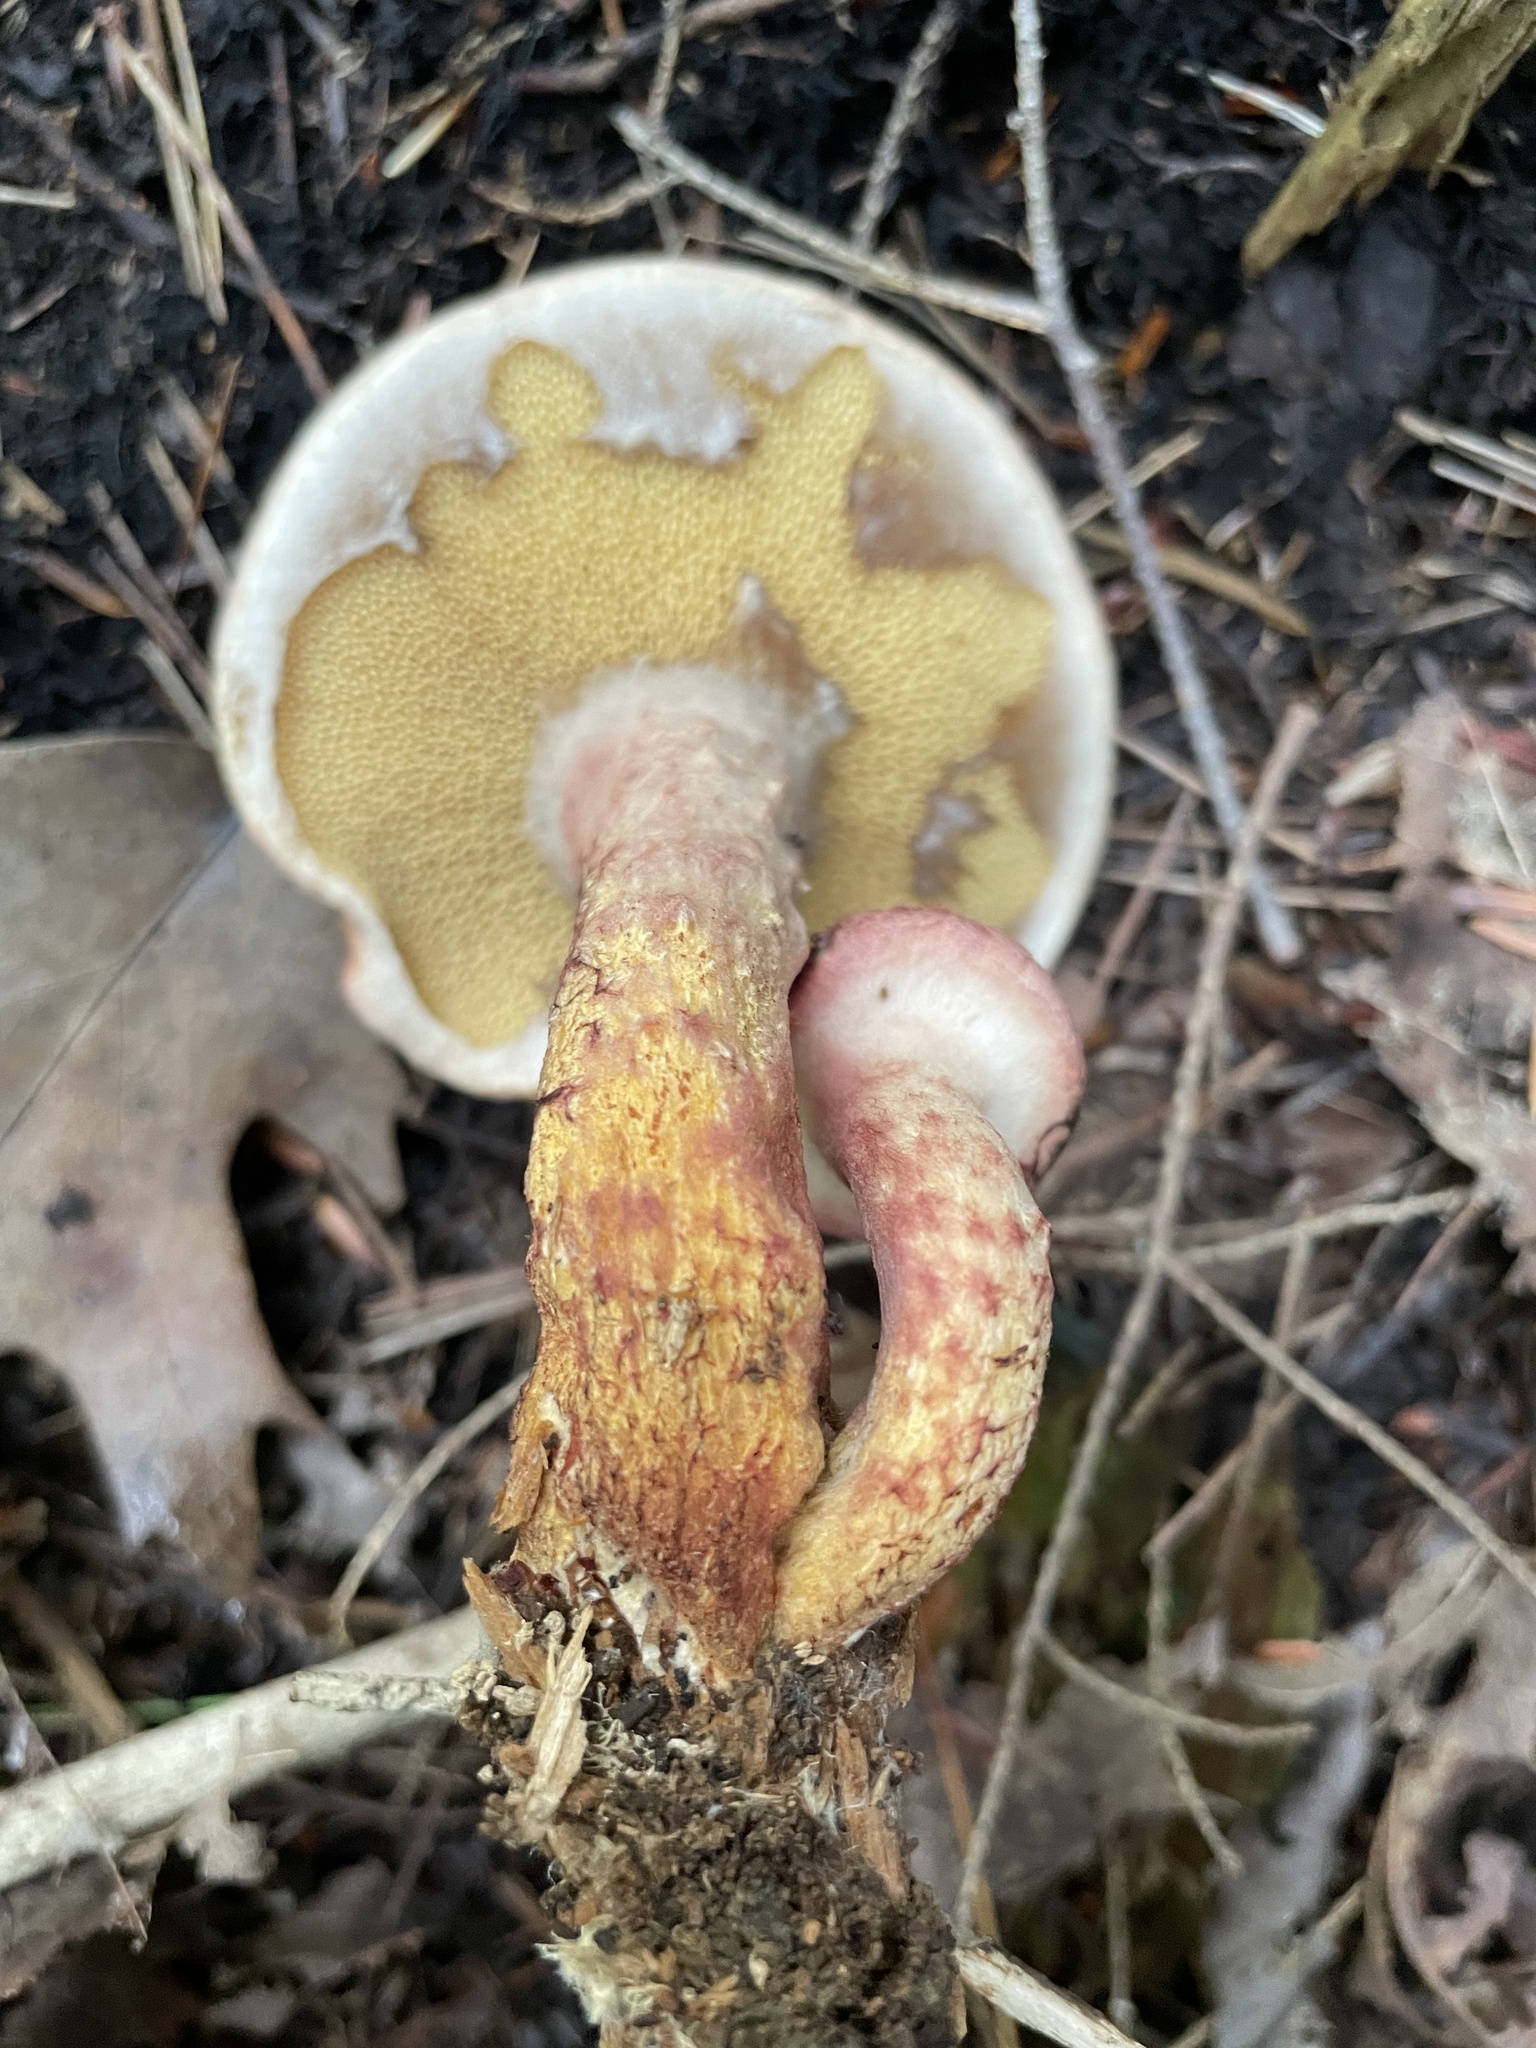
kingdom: Fungi
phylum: Basidiomycota
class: Agaricomycetes
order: Boletales
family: Suillaceae
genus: Suillus
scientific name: Suillus spraguei
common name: Painted suillus
